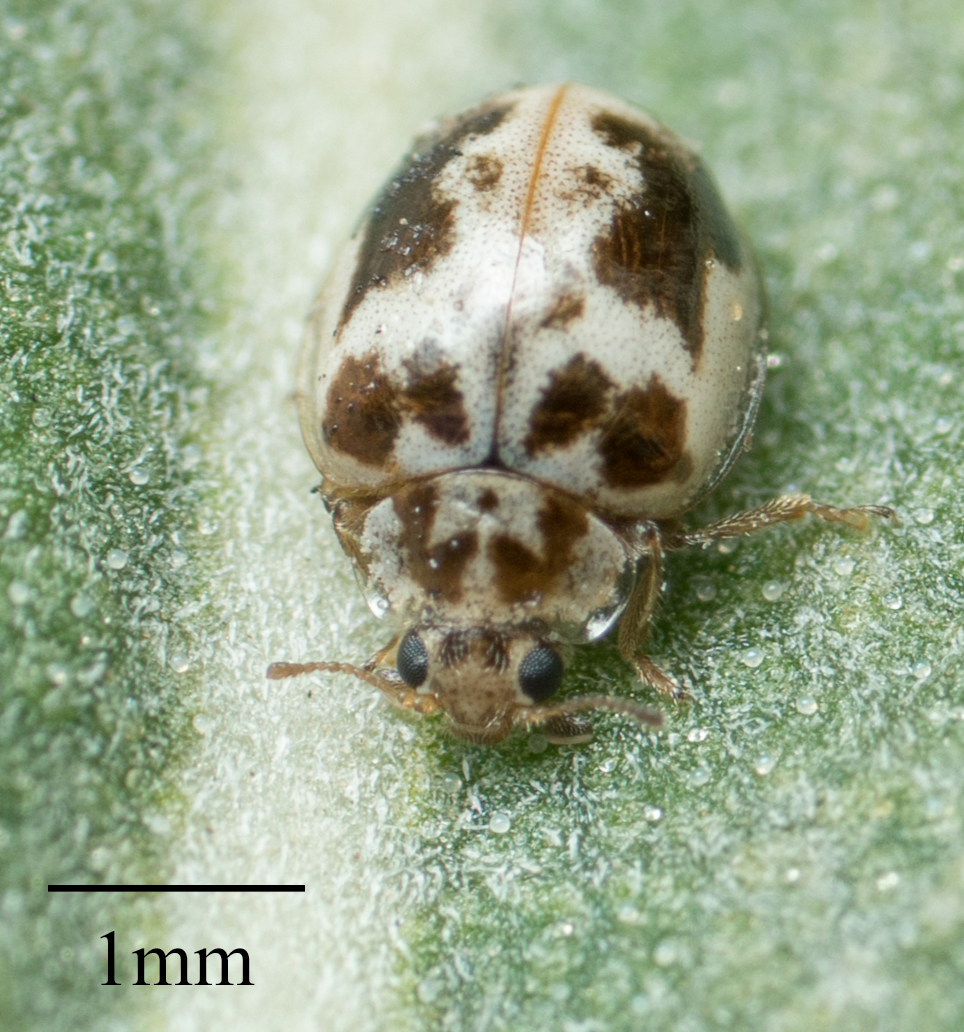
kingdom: Animalia
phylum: Arthropoda
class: Insecta
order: Coleoptera
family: Coccinellidae
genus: Psyllobora
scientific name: Psyllobora renifer
